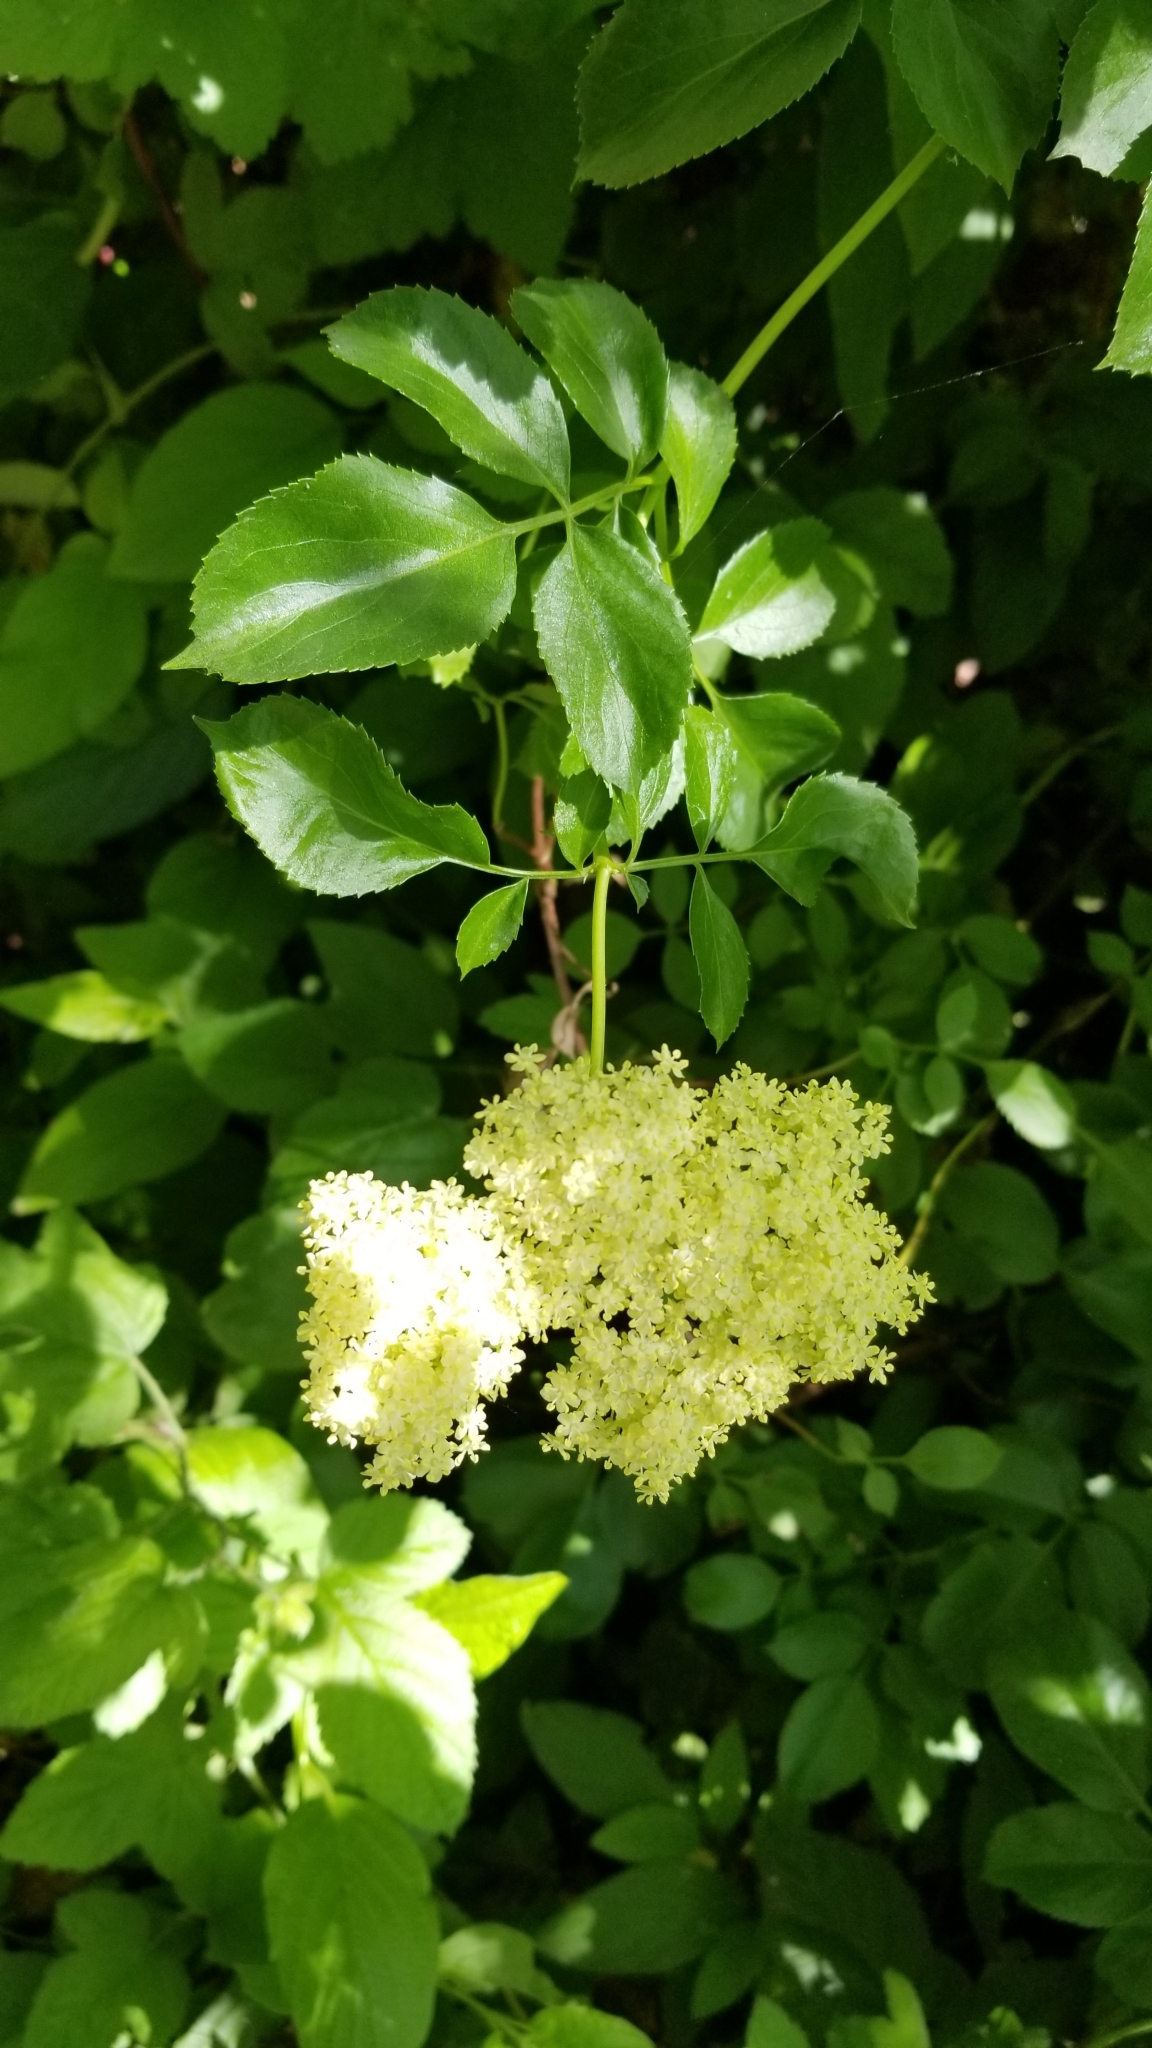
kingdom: Plantae
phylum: Tracheophyta
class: Magnoliopsida
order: Dipsacales
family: Viburnaceae
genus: Sambucus
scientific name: Sambucus cerulea
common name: Blue elder
